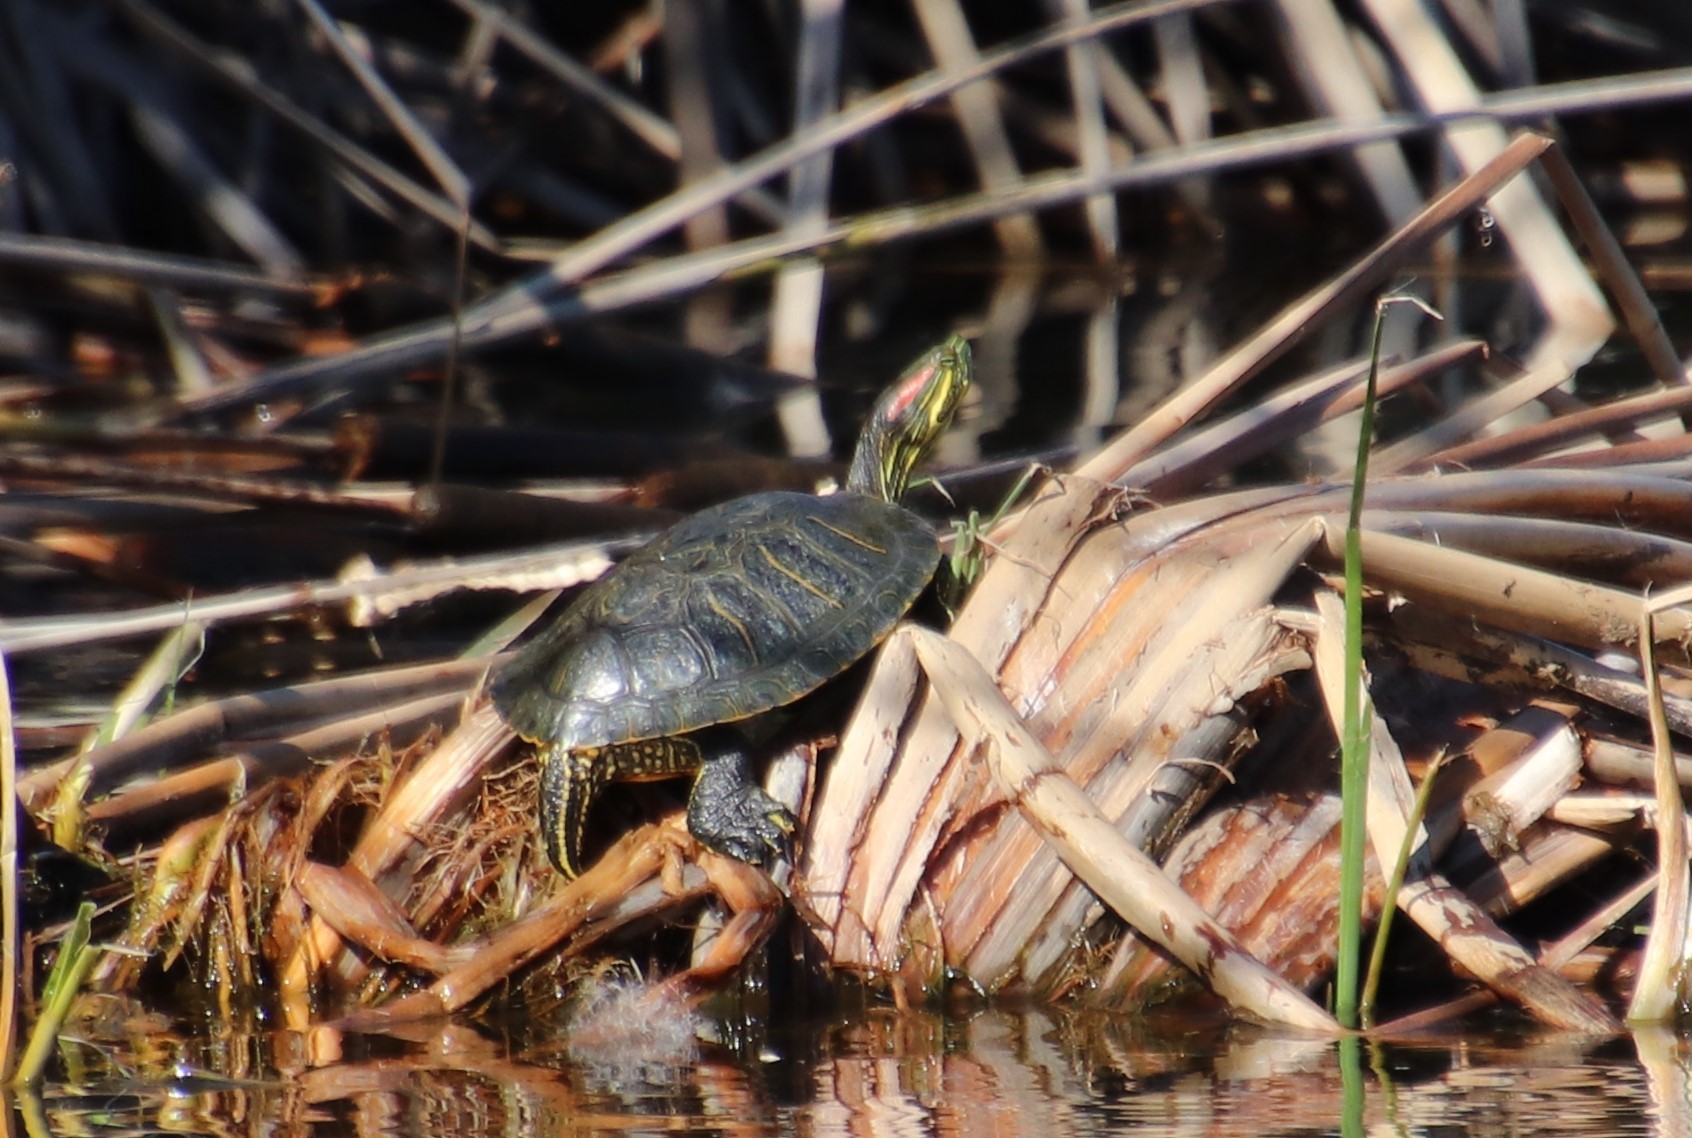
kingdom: Animalia
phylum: Chordata
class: Testudines
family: Emydidae
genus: Trachemys
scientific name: Trachemys scripta
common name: Slider
